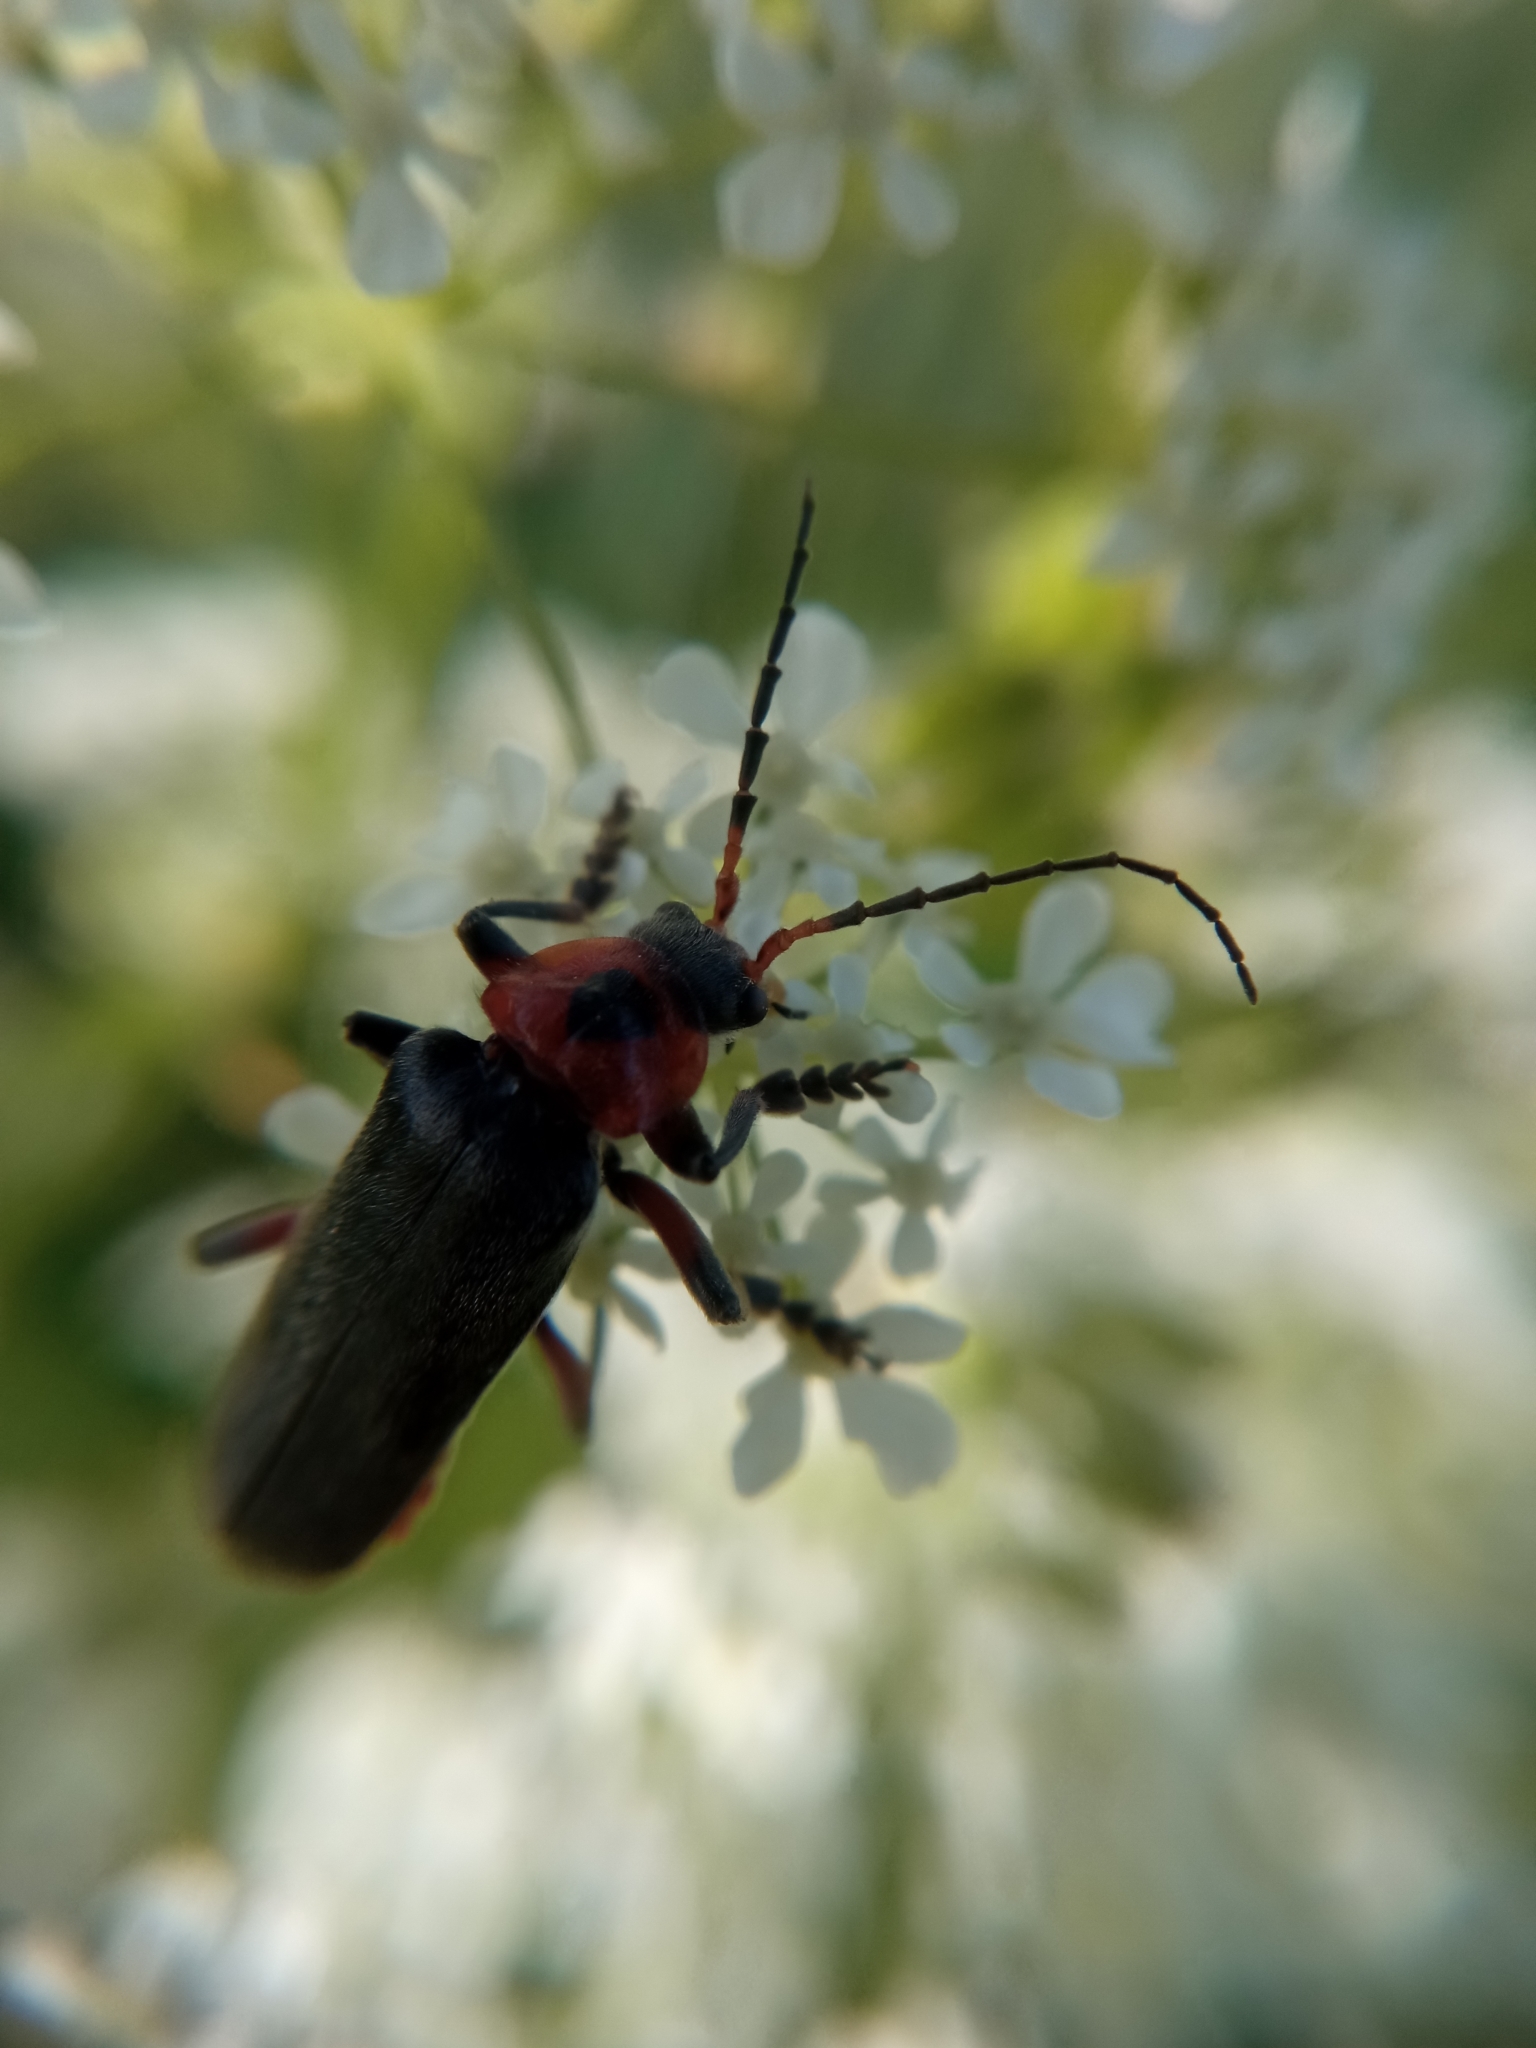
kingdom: Animalia
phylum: Arthropoda
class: Insecta
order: Coleoptera
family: Cantharidae
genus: Cantharis
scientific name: Cantharis rustica
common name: Soldier beetle
